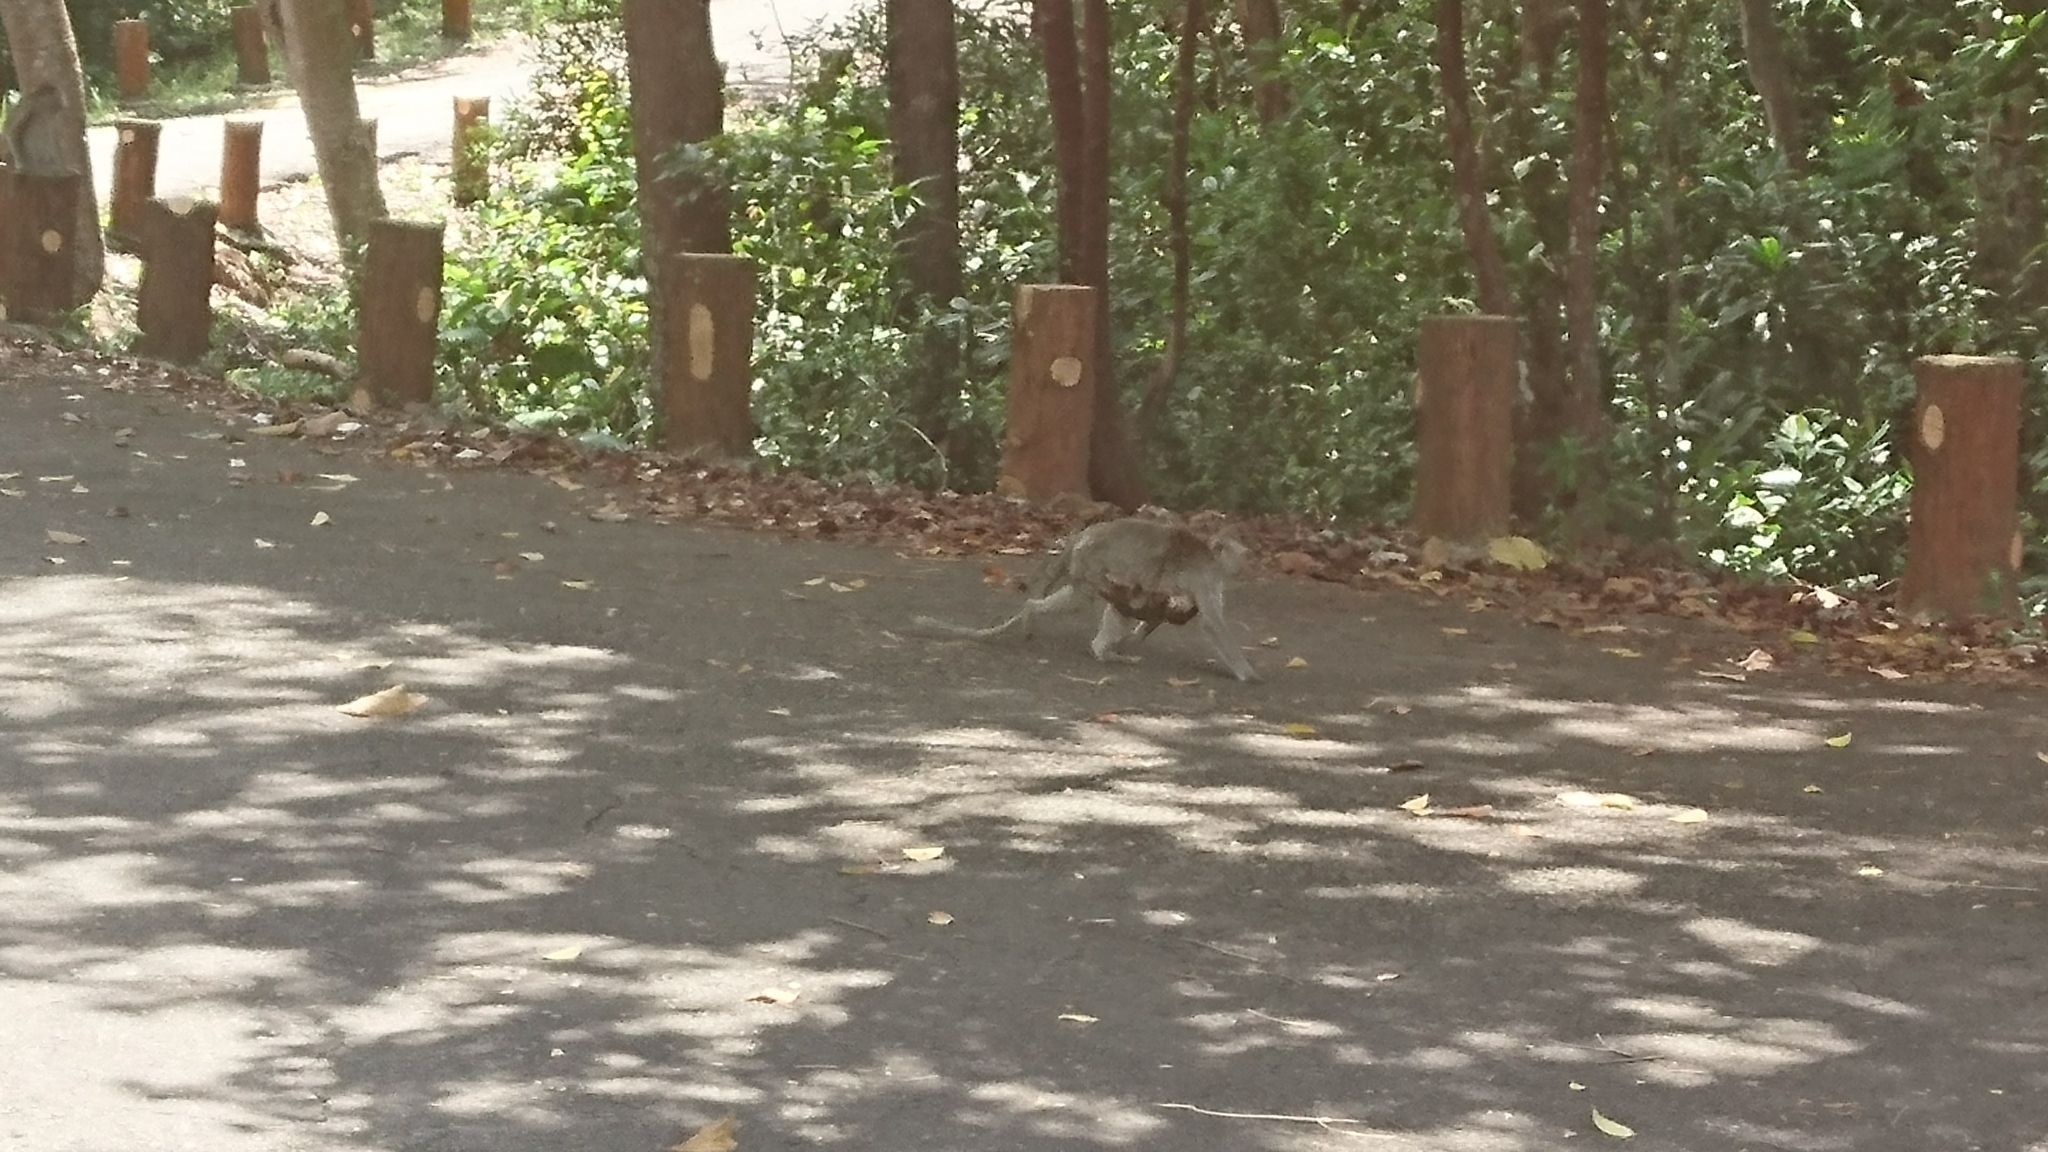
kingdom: Animalia
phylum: Chordata
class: Mammalia
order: Primates
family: Cercopithecidae
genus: Macaca
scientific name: Macaca fascicularis
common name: Crab-eating macaque
